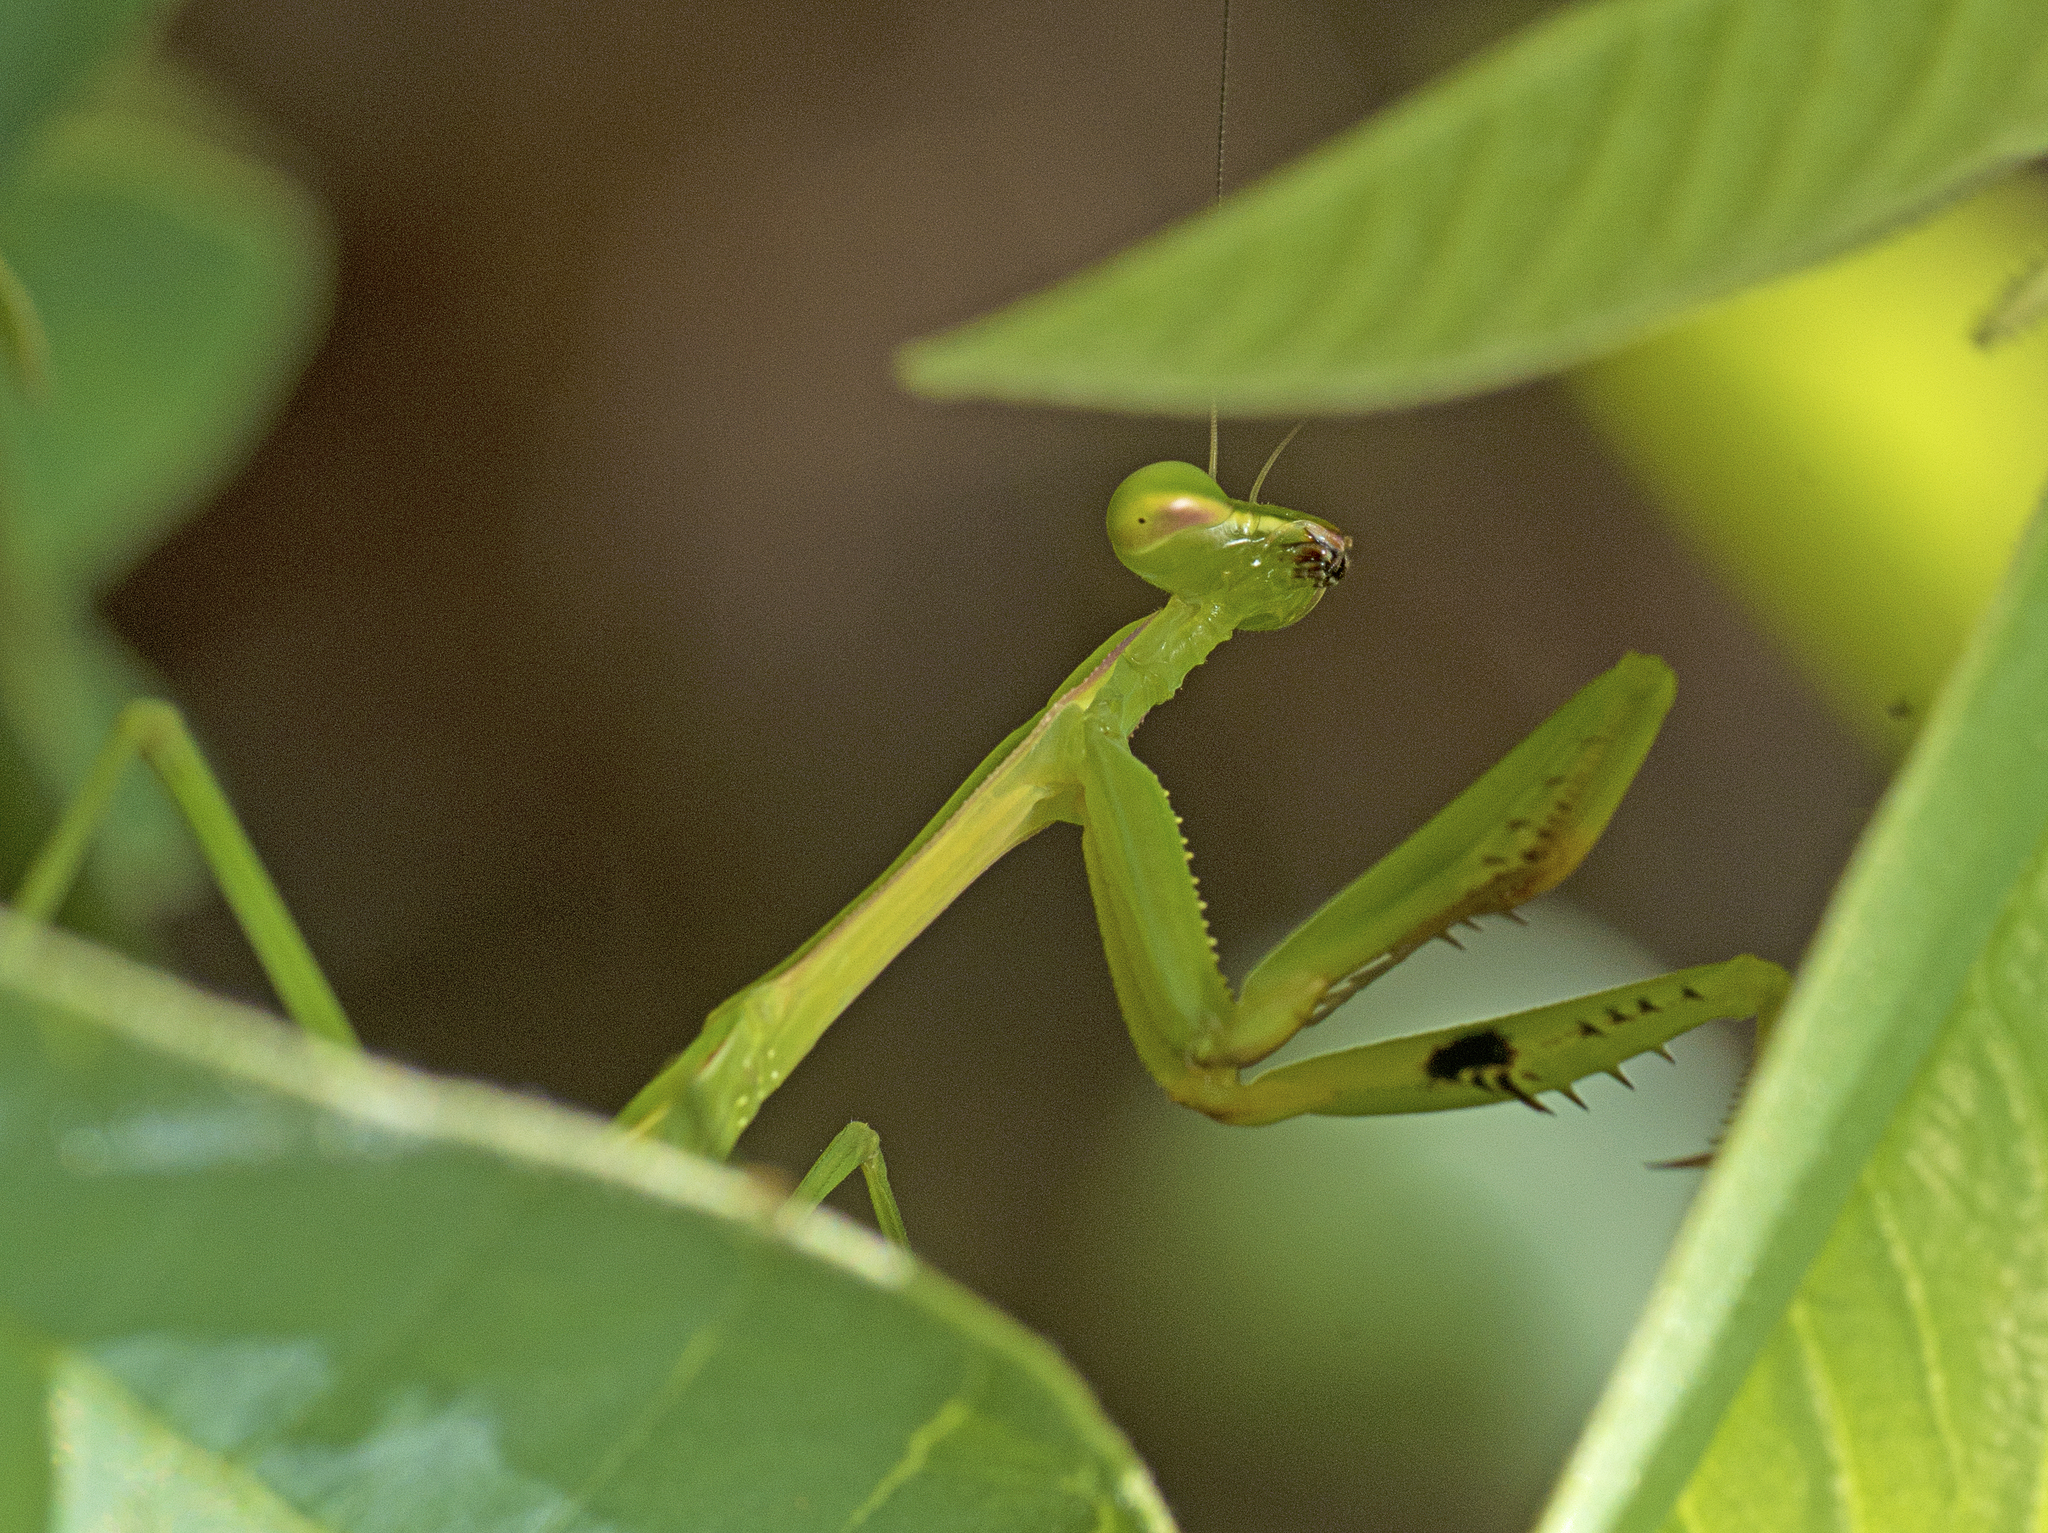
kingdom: Animalia
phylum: Arthropoda
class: Insecta
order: Mantodea
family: Mantidae
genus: Pseudomantis
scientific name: Pseudomantis albofimbriata
